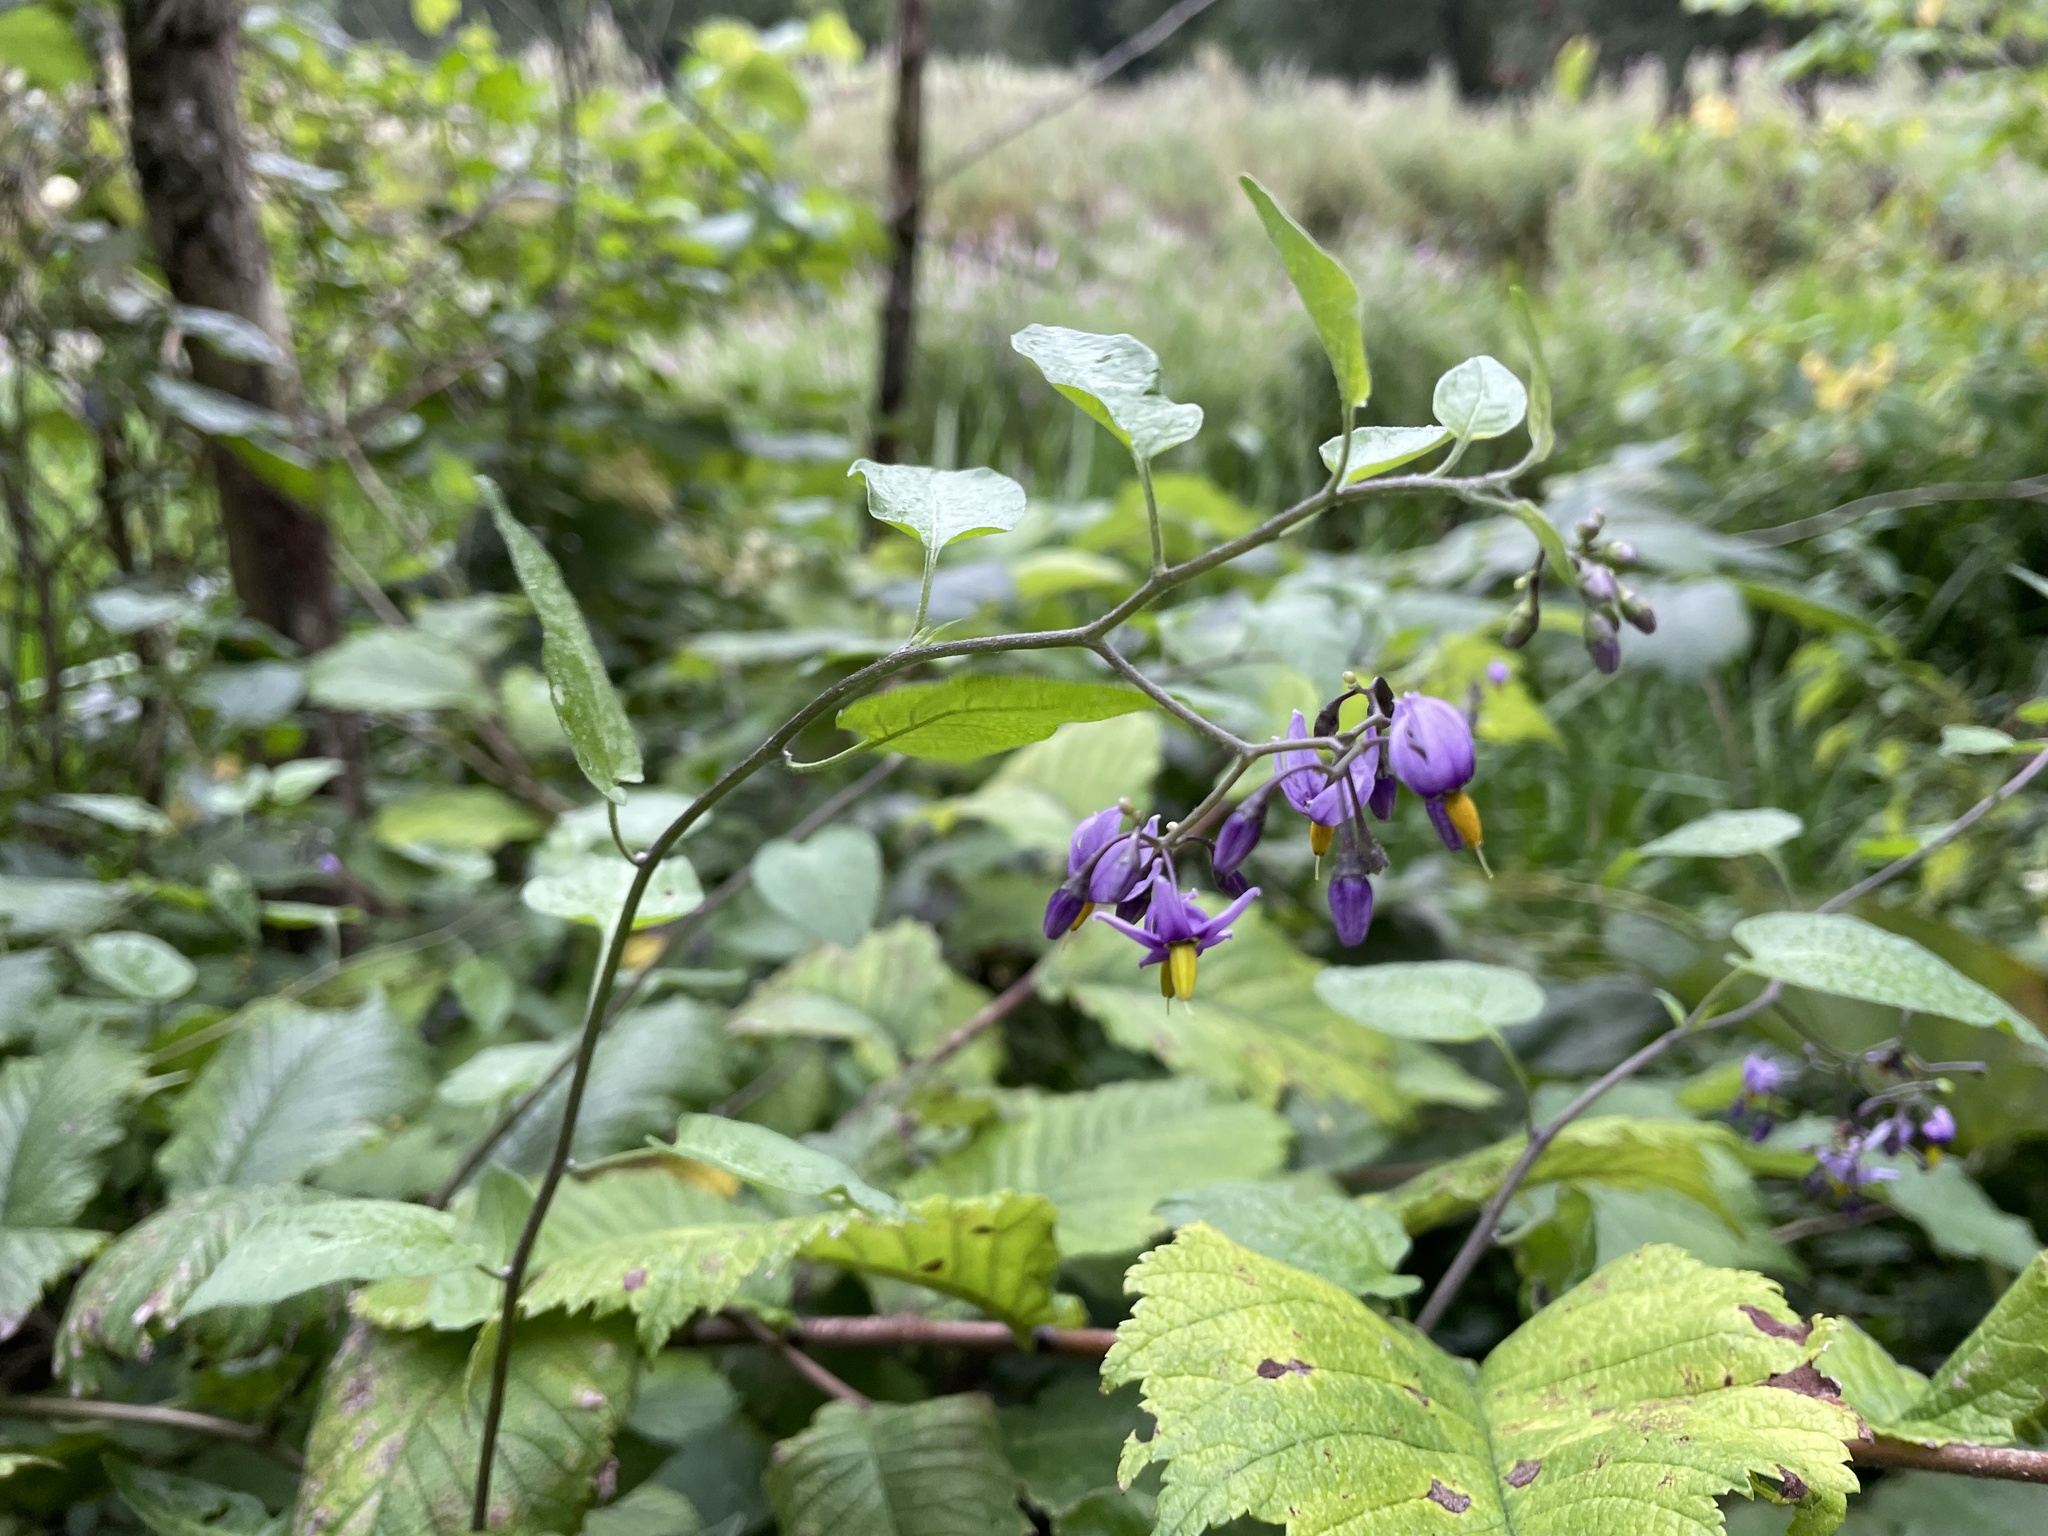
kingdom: Plantae
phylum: Tracheophyta
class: Magnoliopsida
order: Solanales
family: Solanaceae
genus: Solanum
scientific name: Solanum dulcamara
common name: Climbing nightshade
